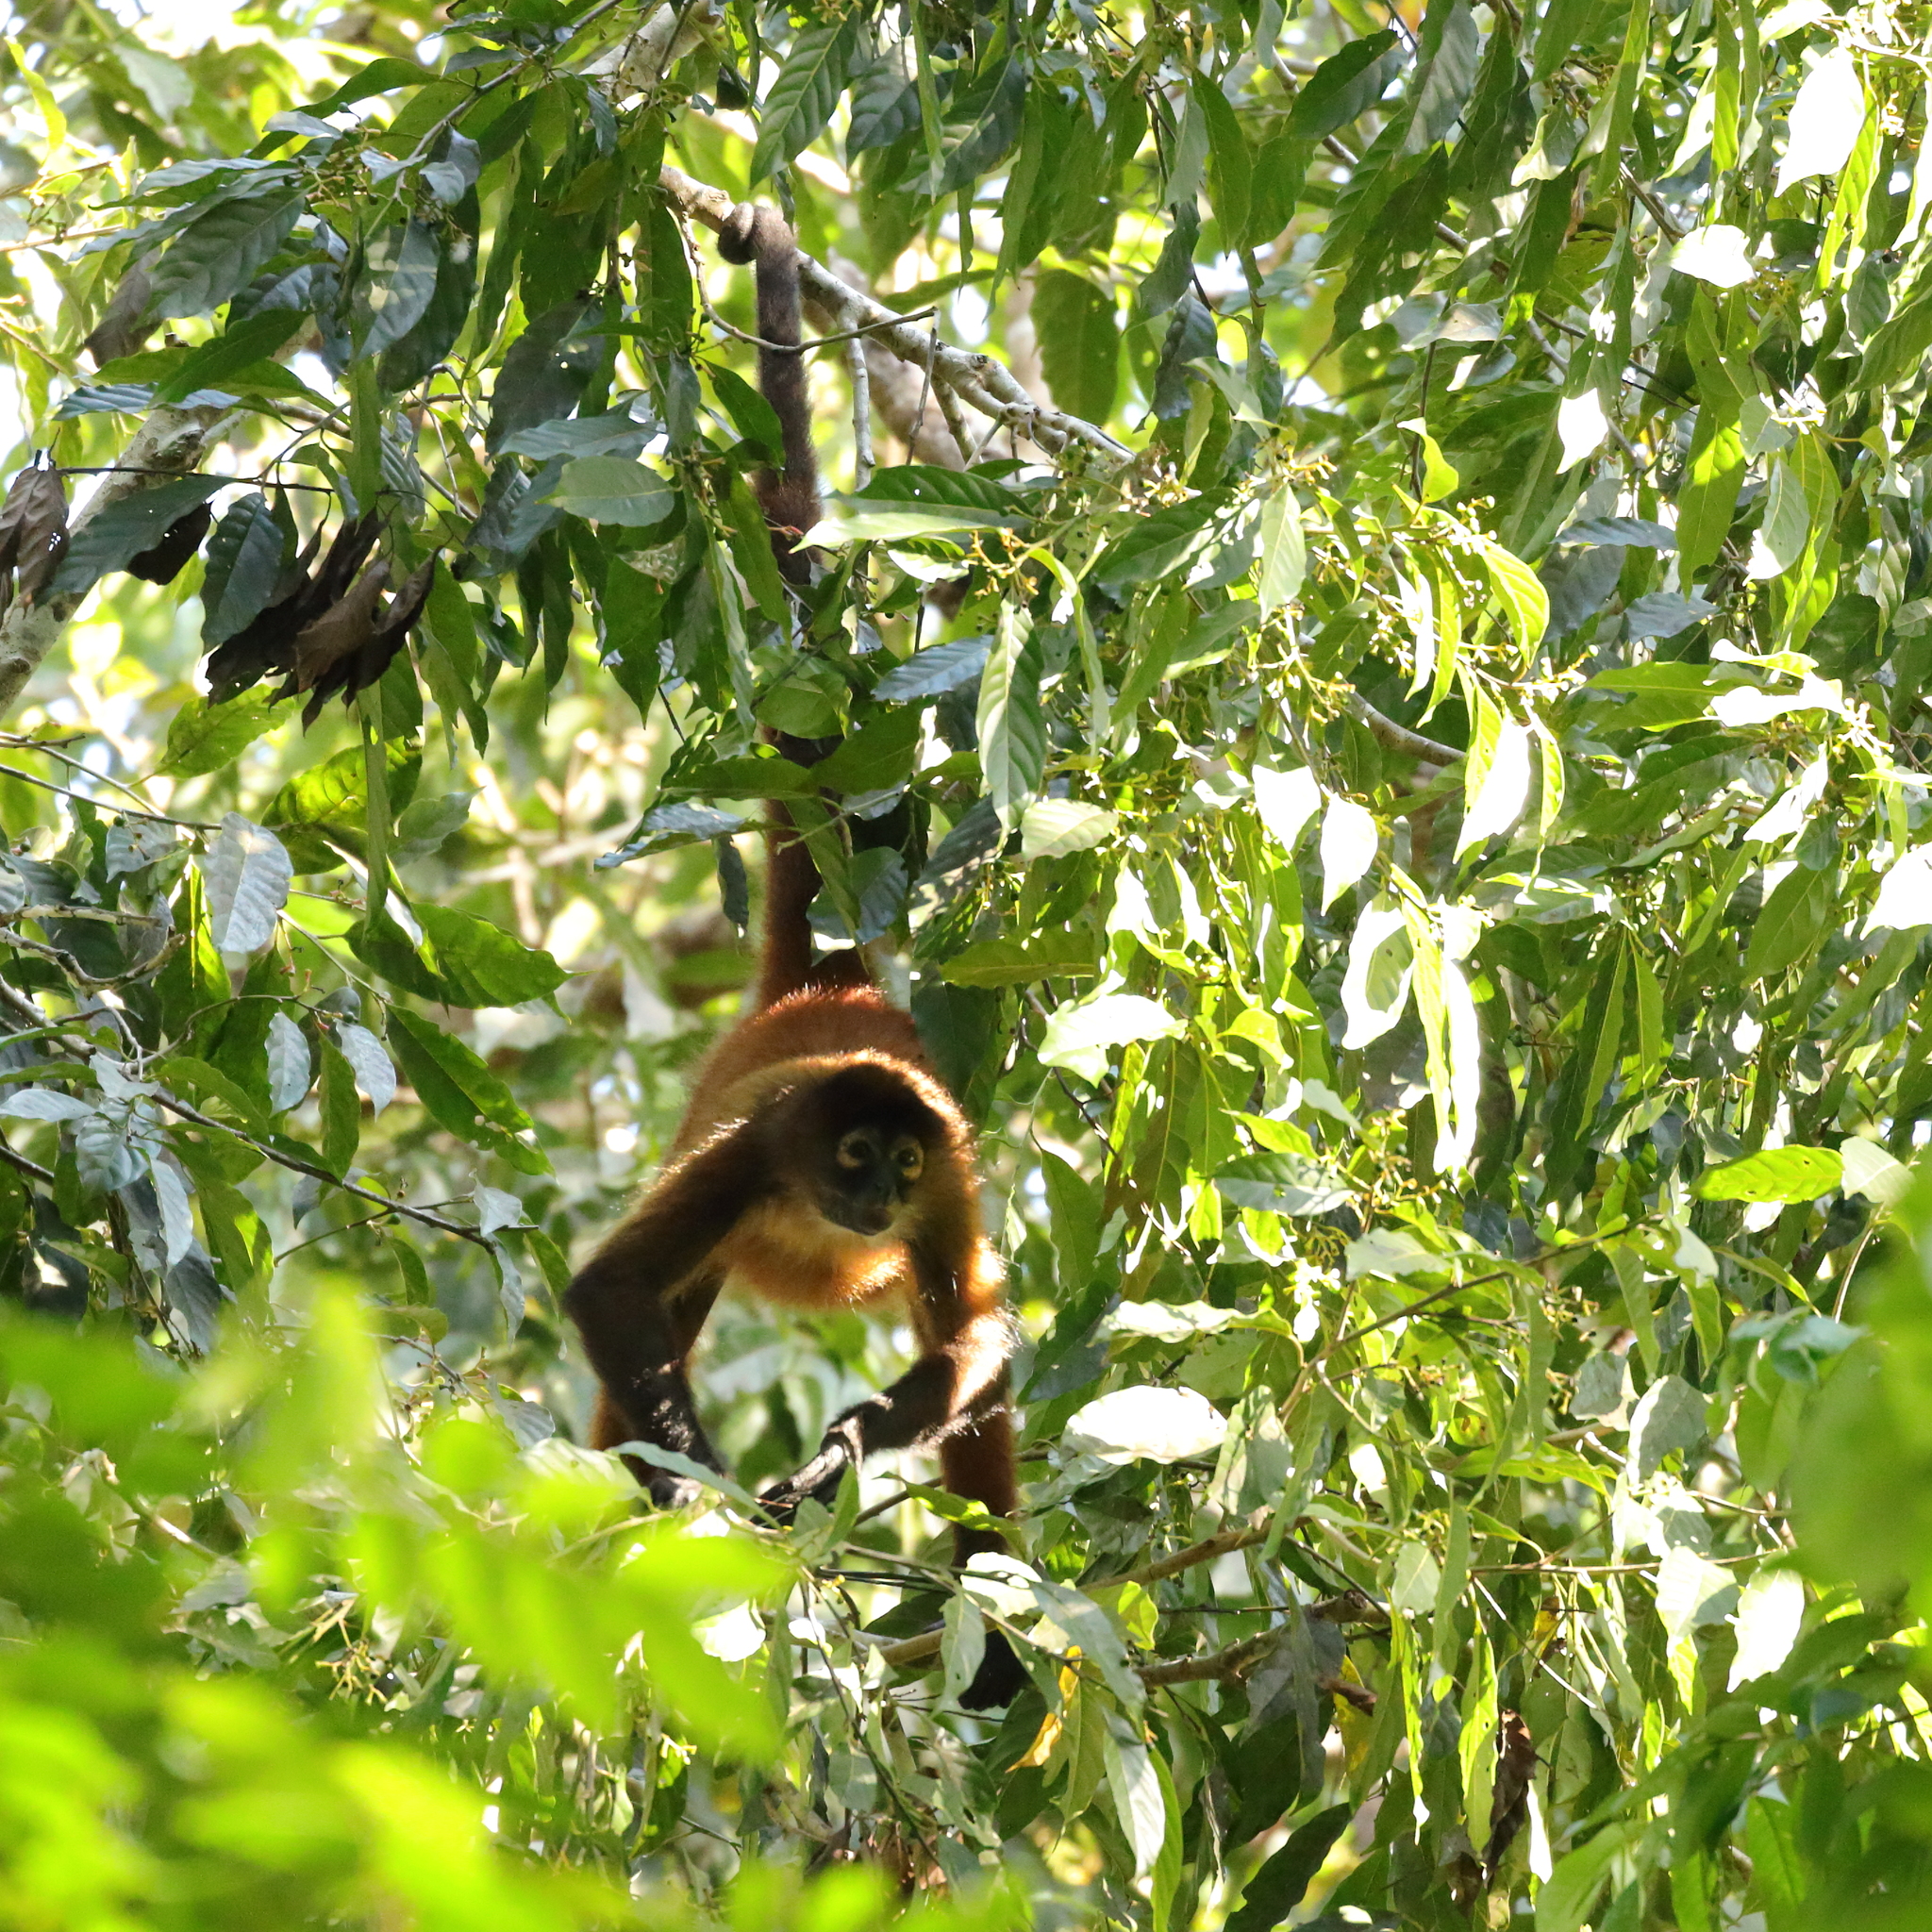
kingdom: Animalia
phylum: Chordata
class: Mammalia
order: Primates
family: Atelidae
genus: Ateles
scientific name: Ateles geoffroyi
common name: Black-handed spider monkey
